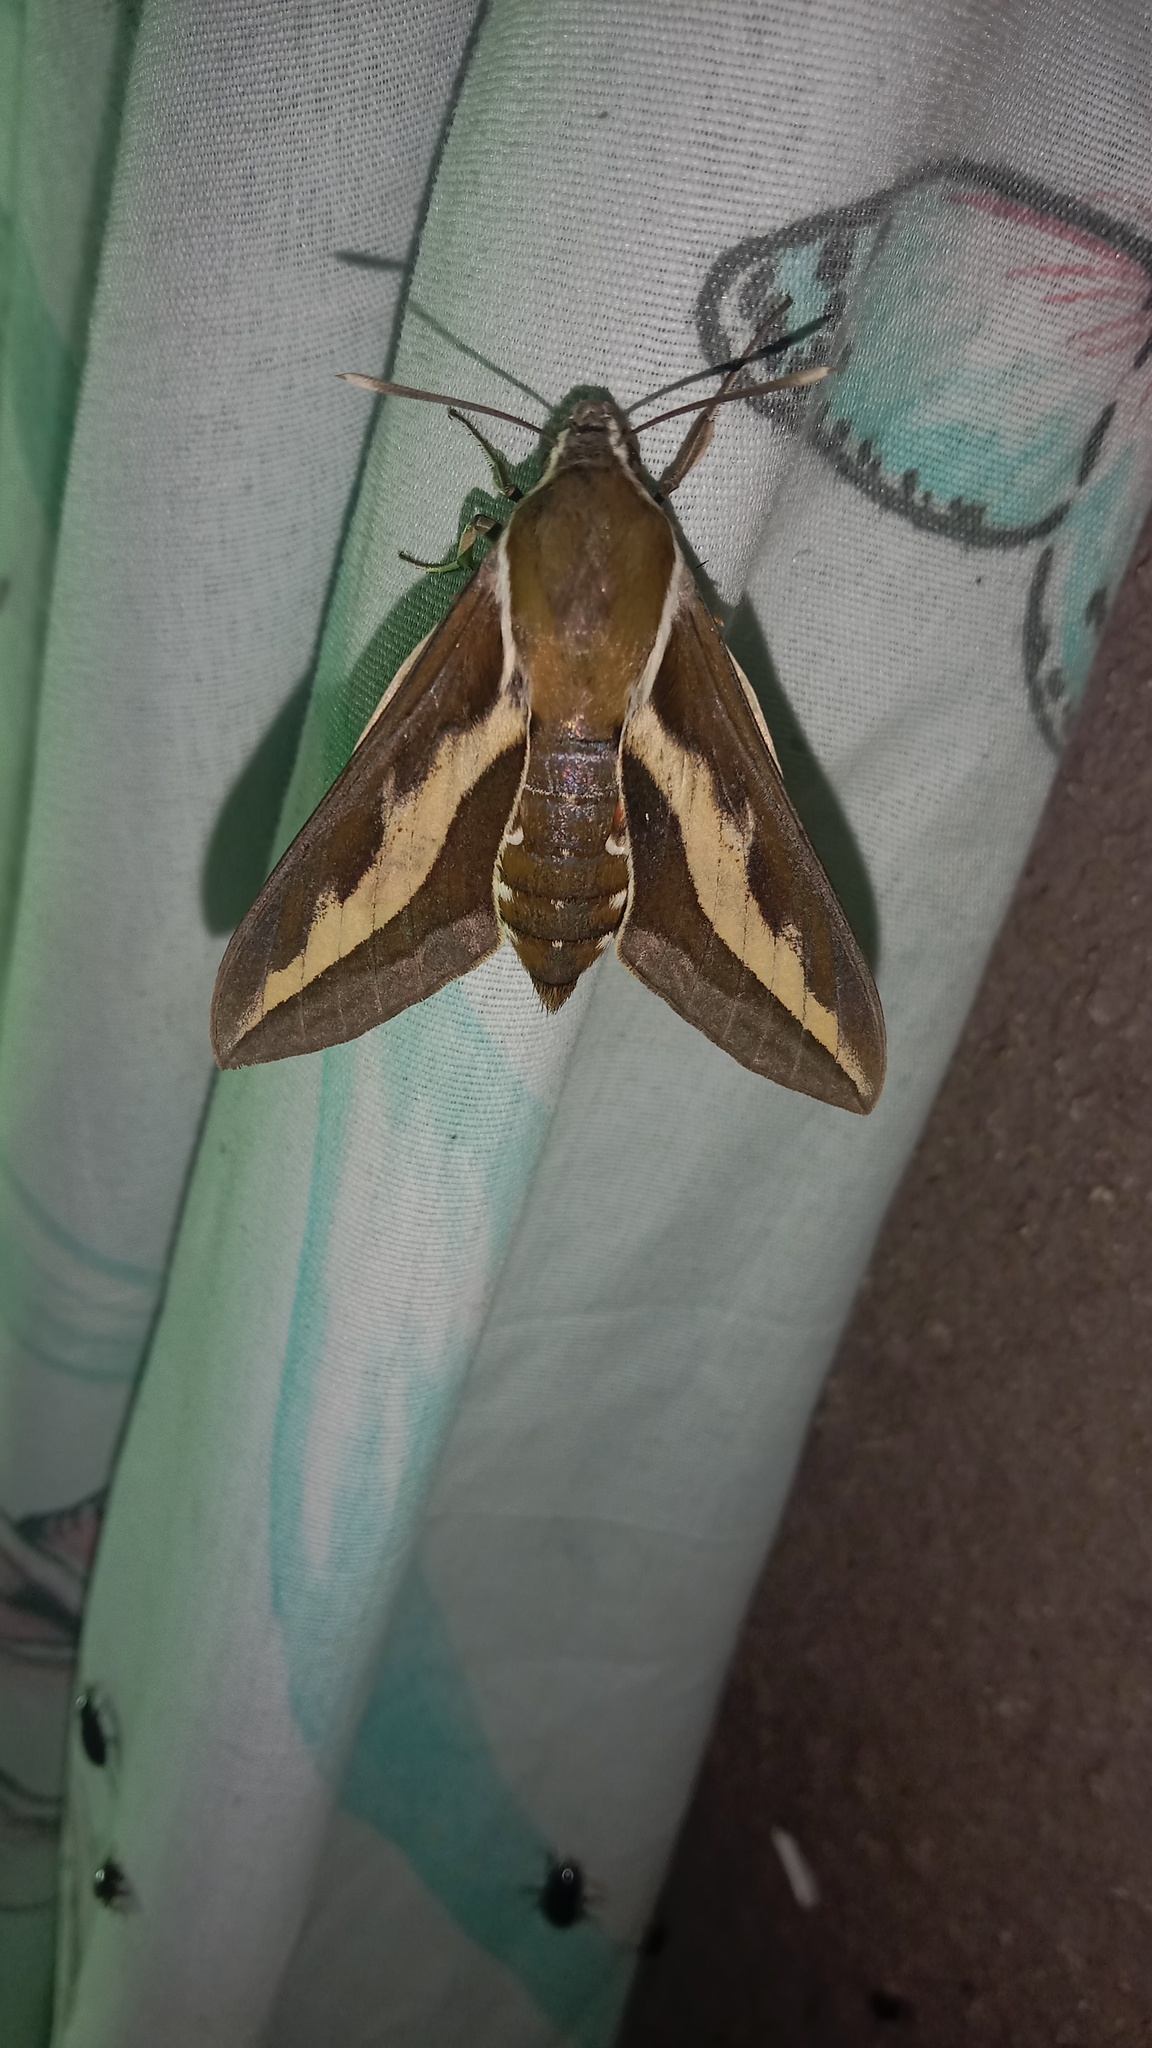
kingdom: Animalia
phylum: Arthropoda
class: Insecta
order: Lepidoptera
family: Sphingidae
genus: Hyles
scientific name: Hyles gallii
